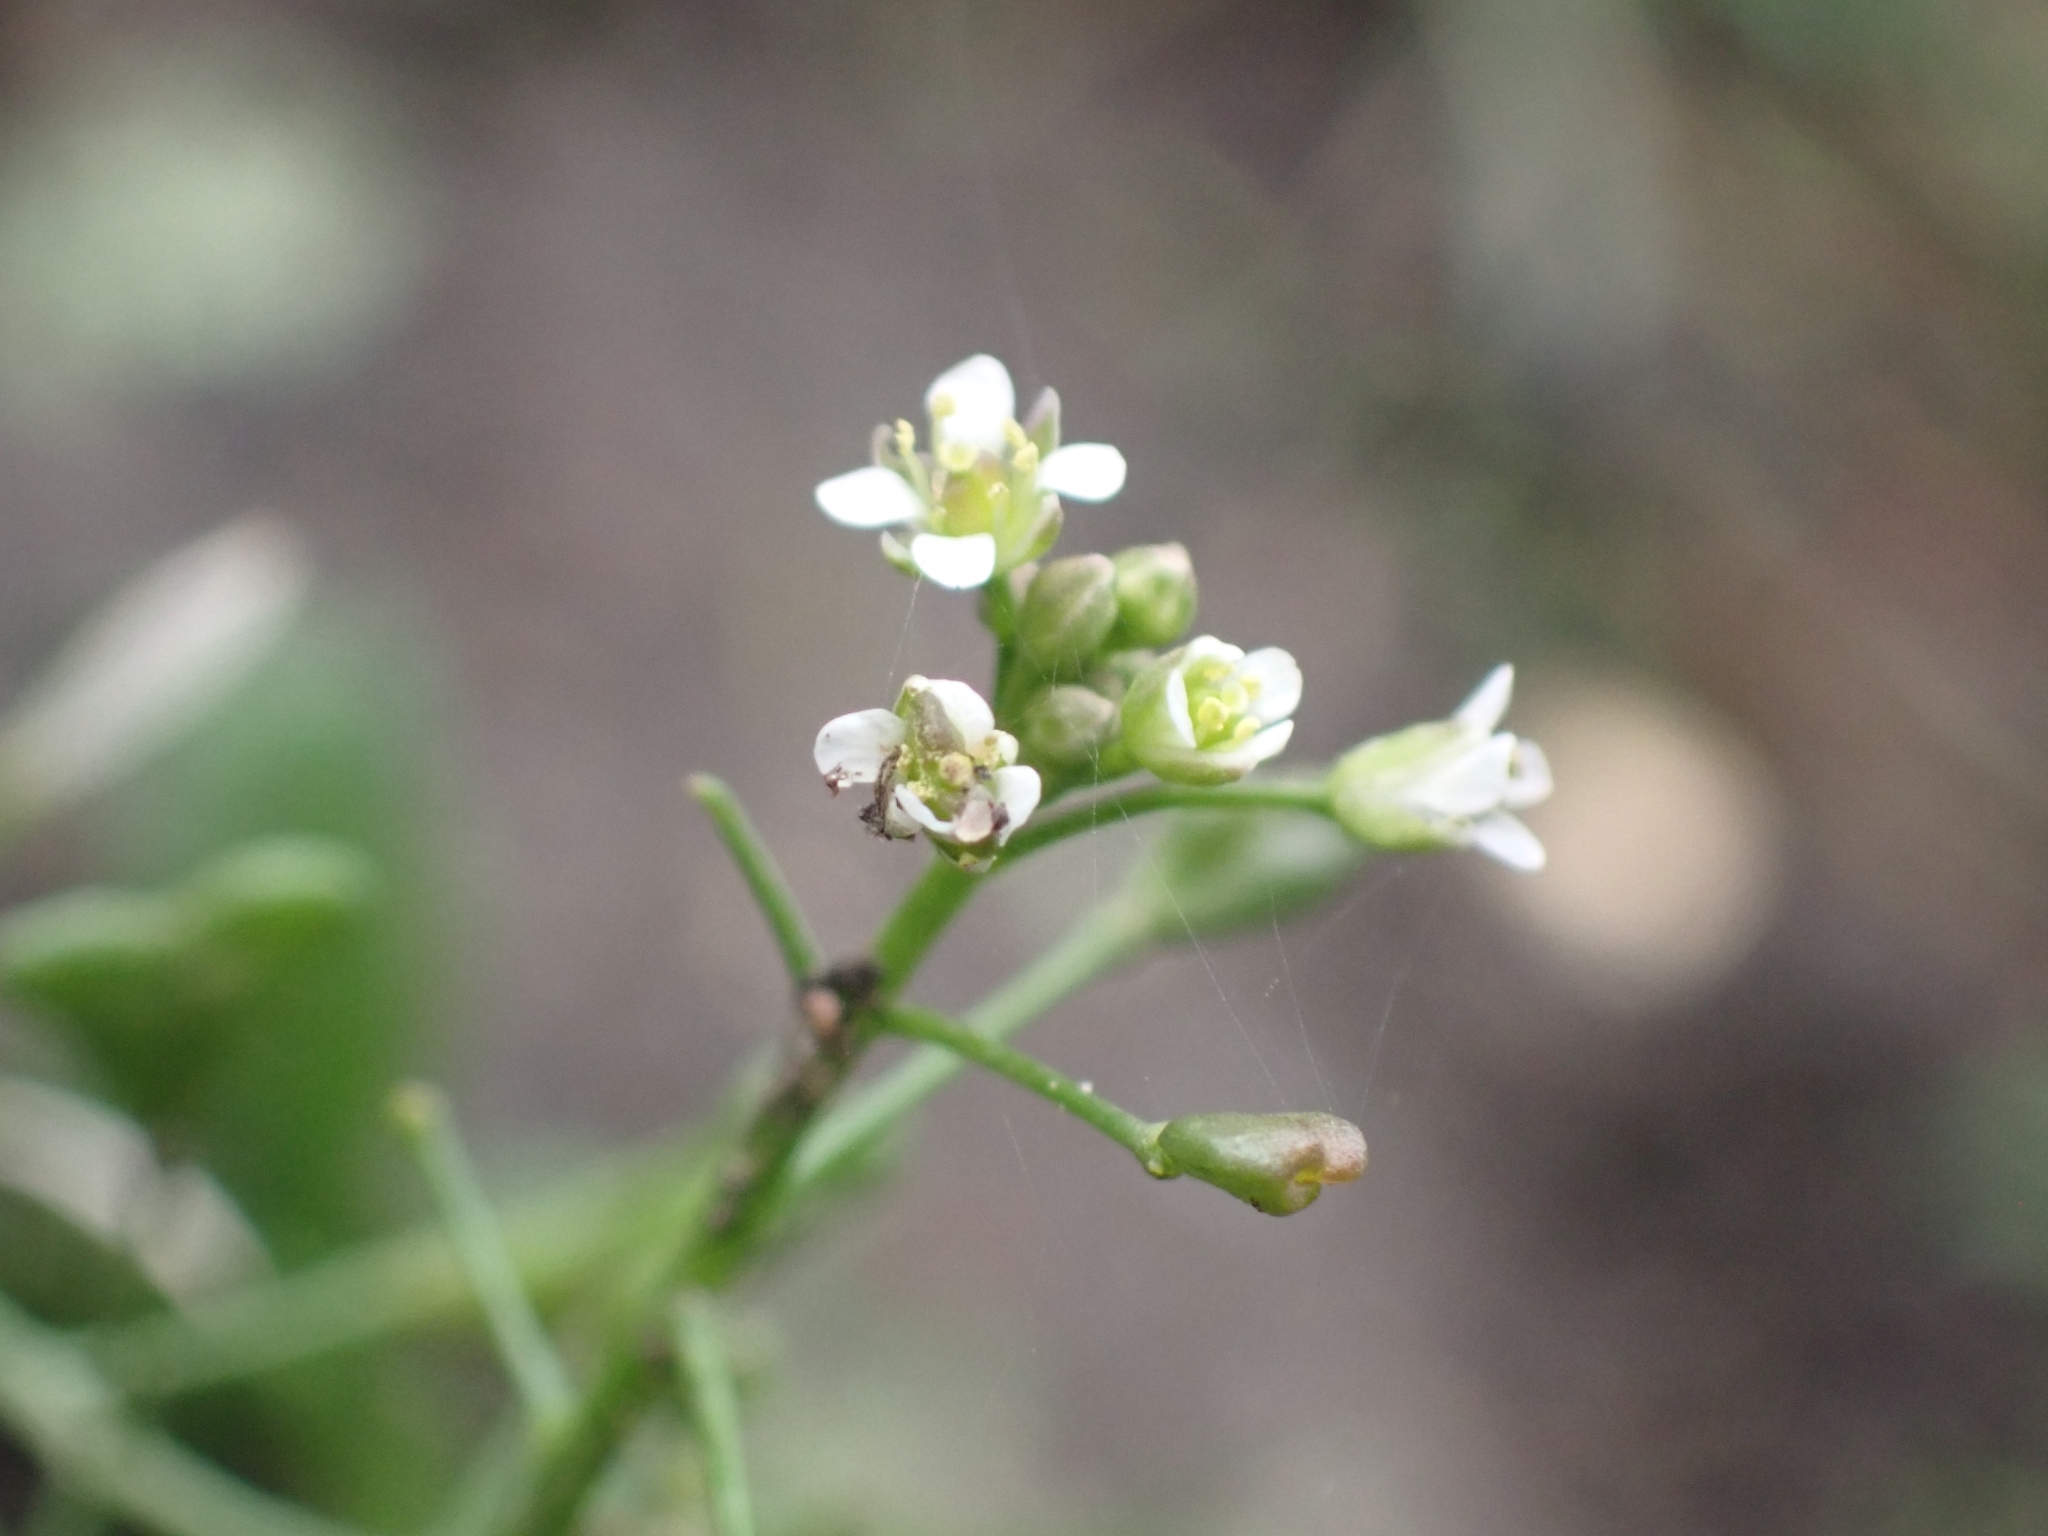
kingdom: Plantae
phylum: Tracheophyta
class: Magnoliopsida
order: Brassicales
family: Brassicaceae
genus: Capsella
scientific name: Capsella bursa-pastoris
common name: Shepherd's purse
